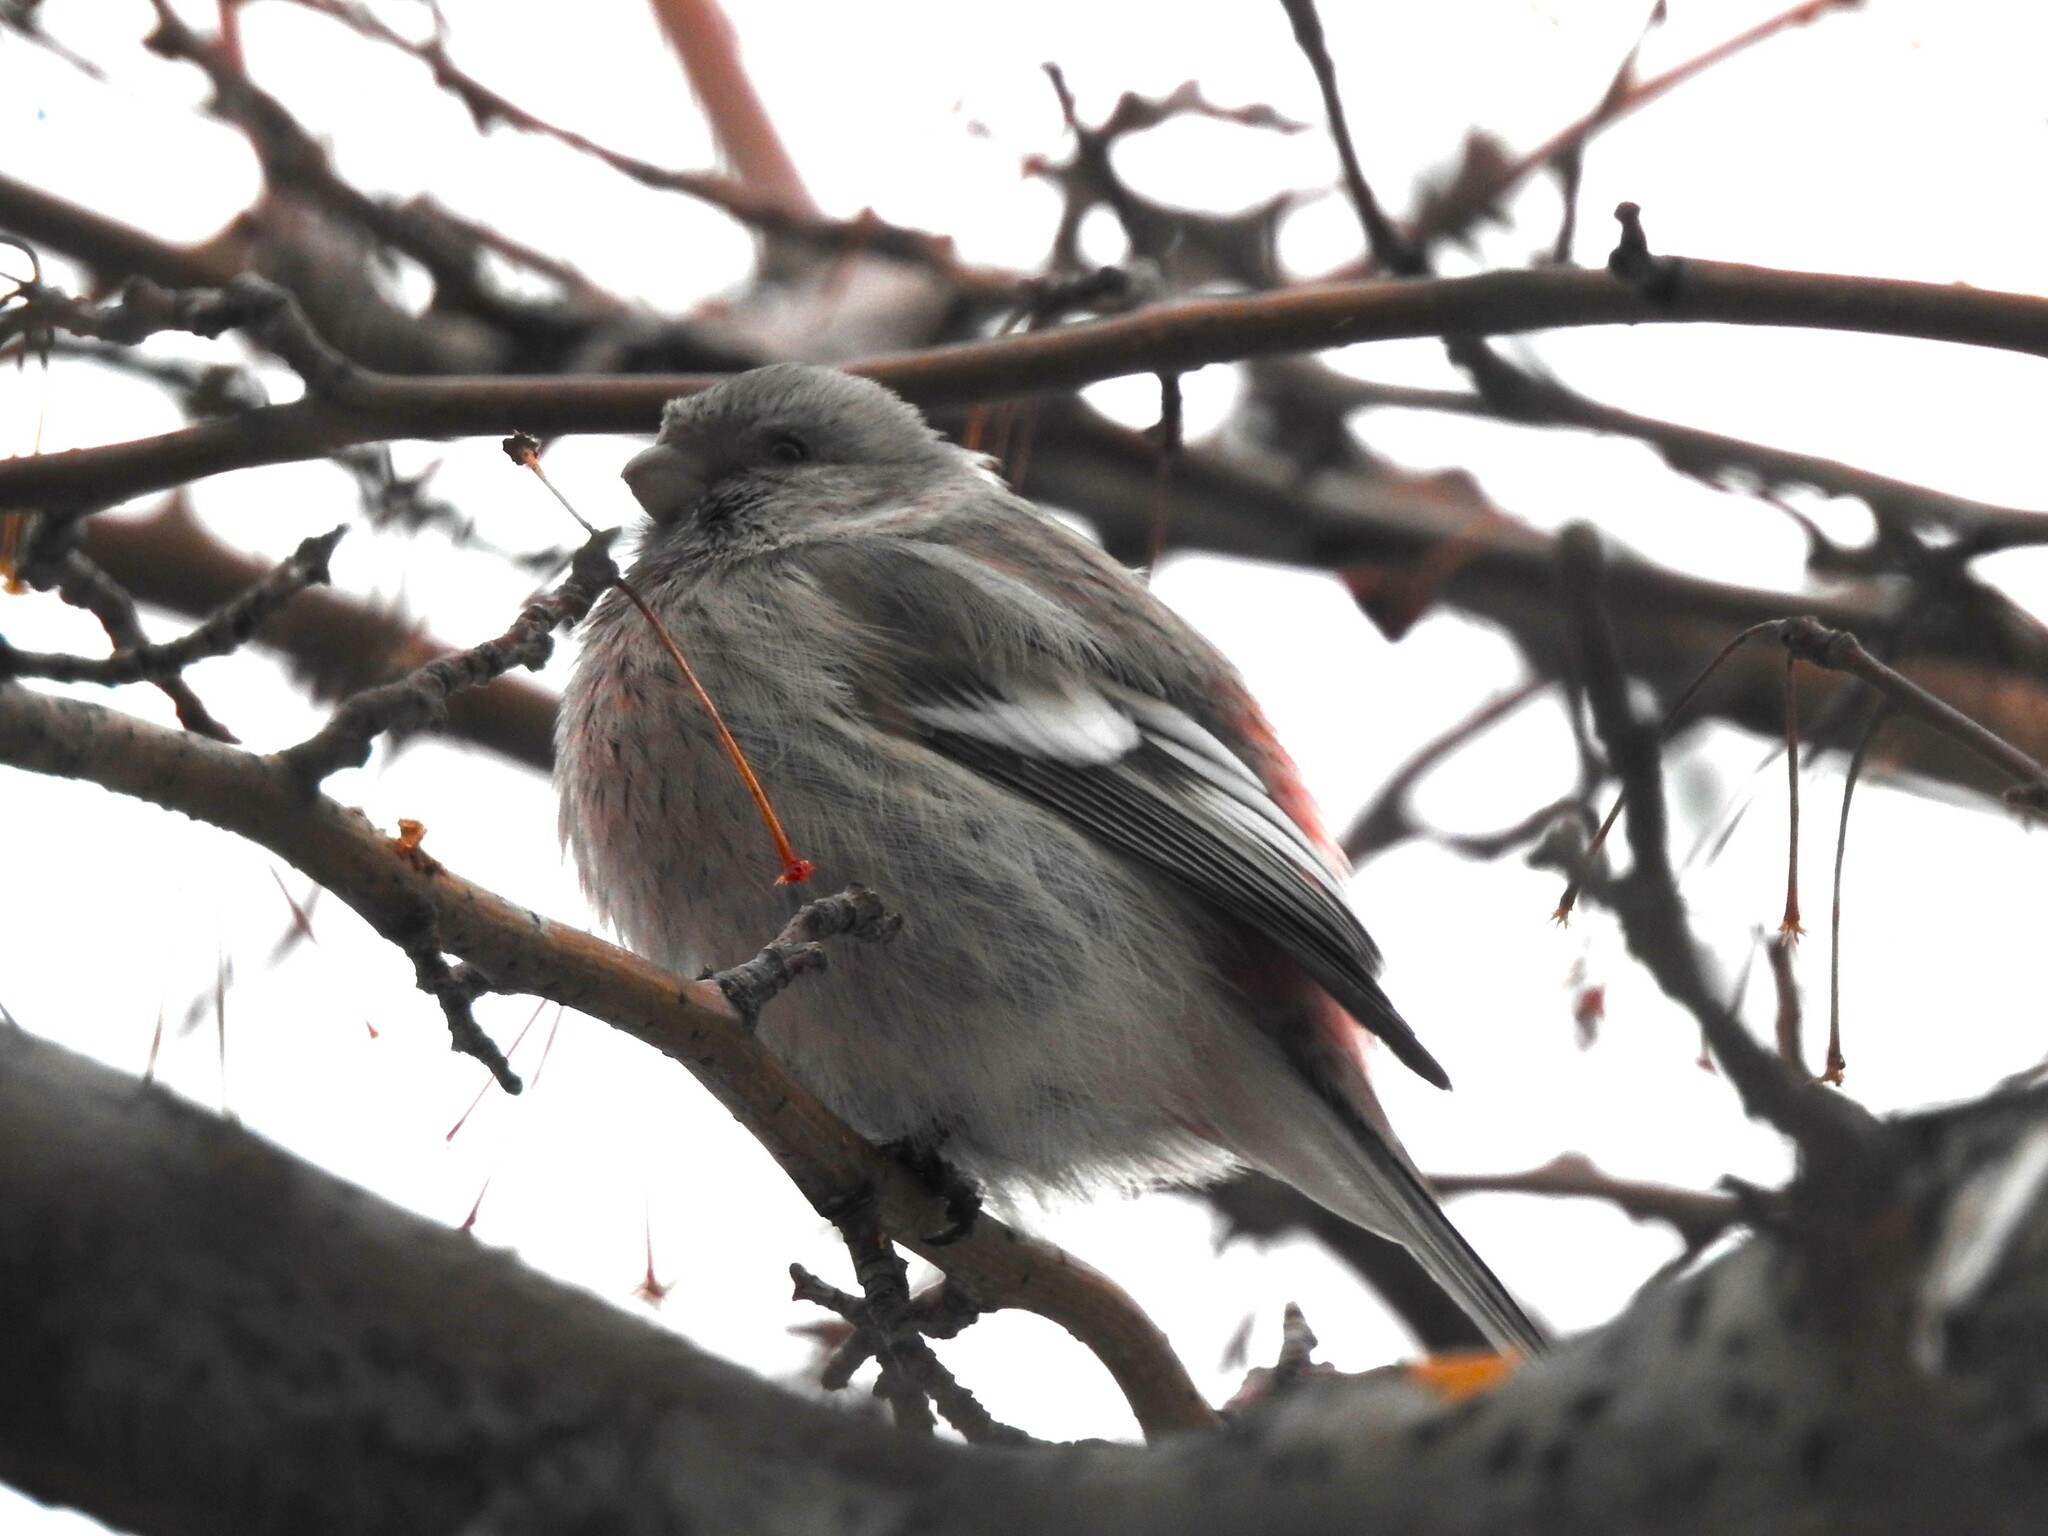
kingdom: Animalia
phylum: Chordata
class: Aves
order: Passeriformes
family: Fringillidae
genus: Carpodacus
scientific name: Carpodacus sibiricus
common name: Long-tailed rosefinch
